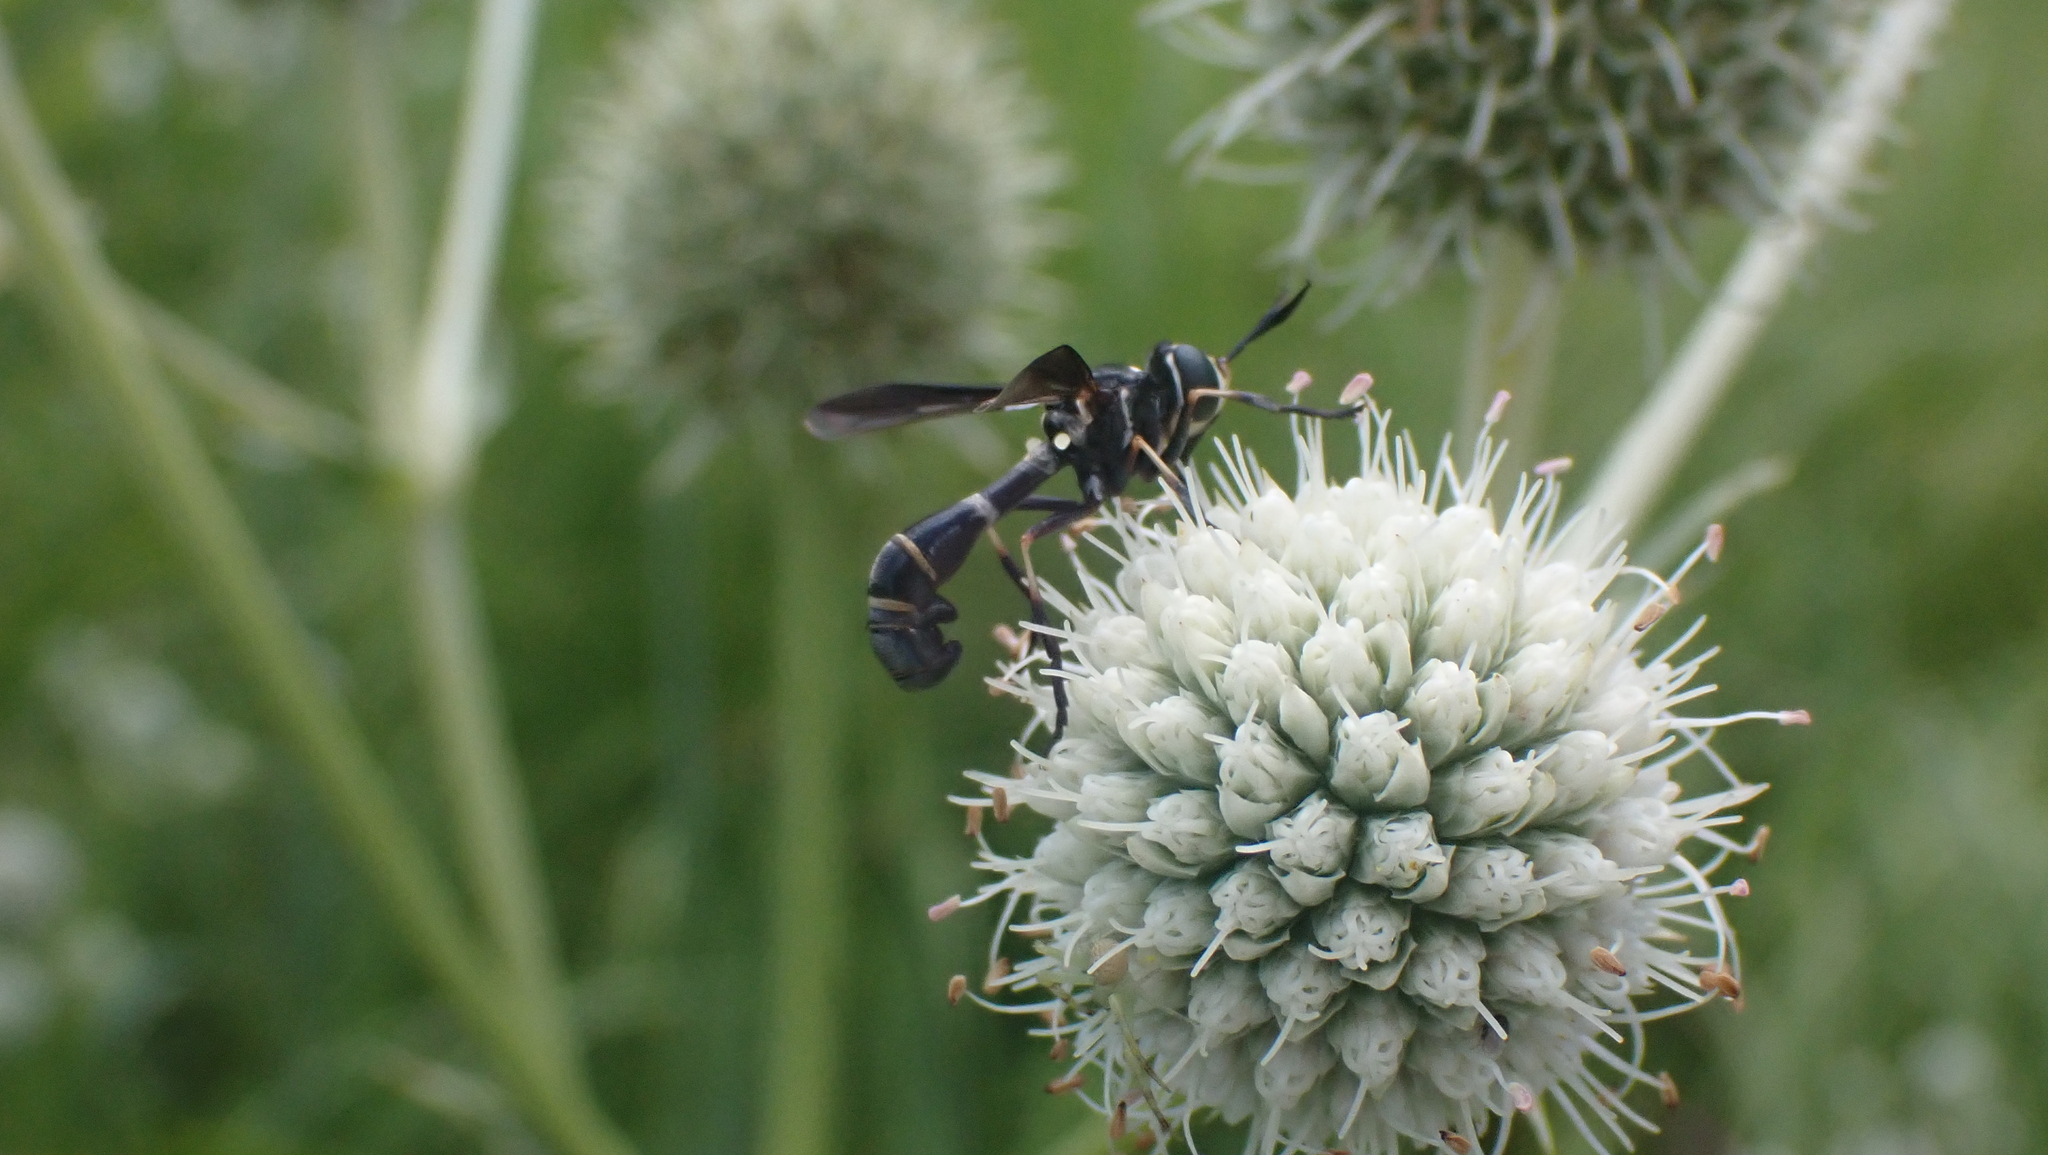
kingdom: Animalia
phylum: Arthropoda
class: Insecta
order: Diptera
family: Conopidae
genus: Physoconops
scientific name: Physoconops brachyrhynchus
